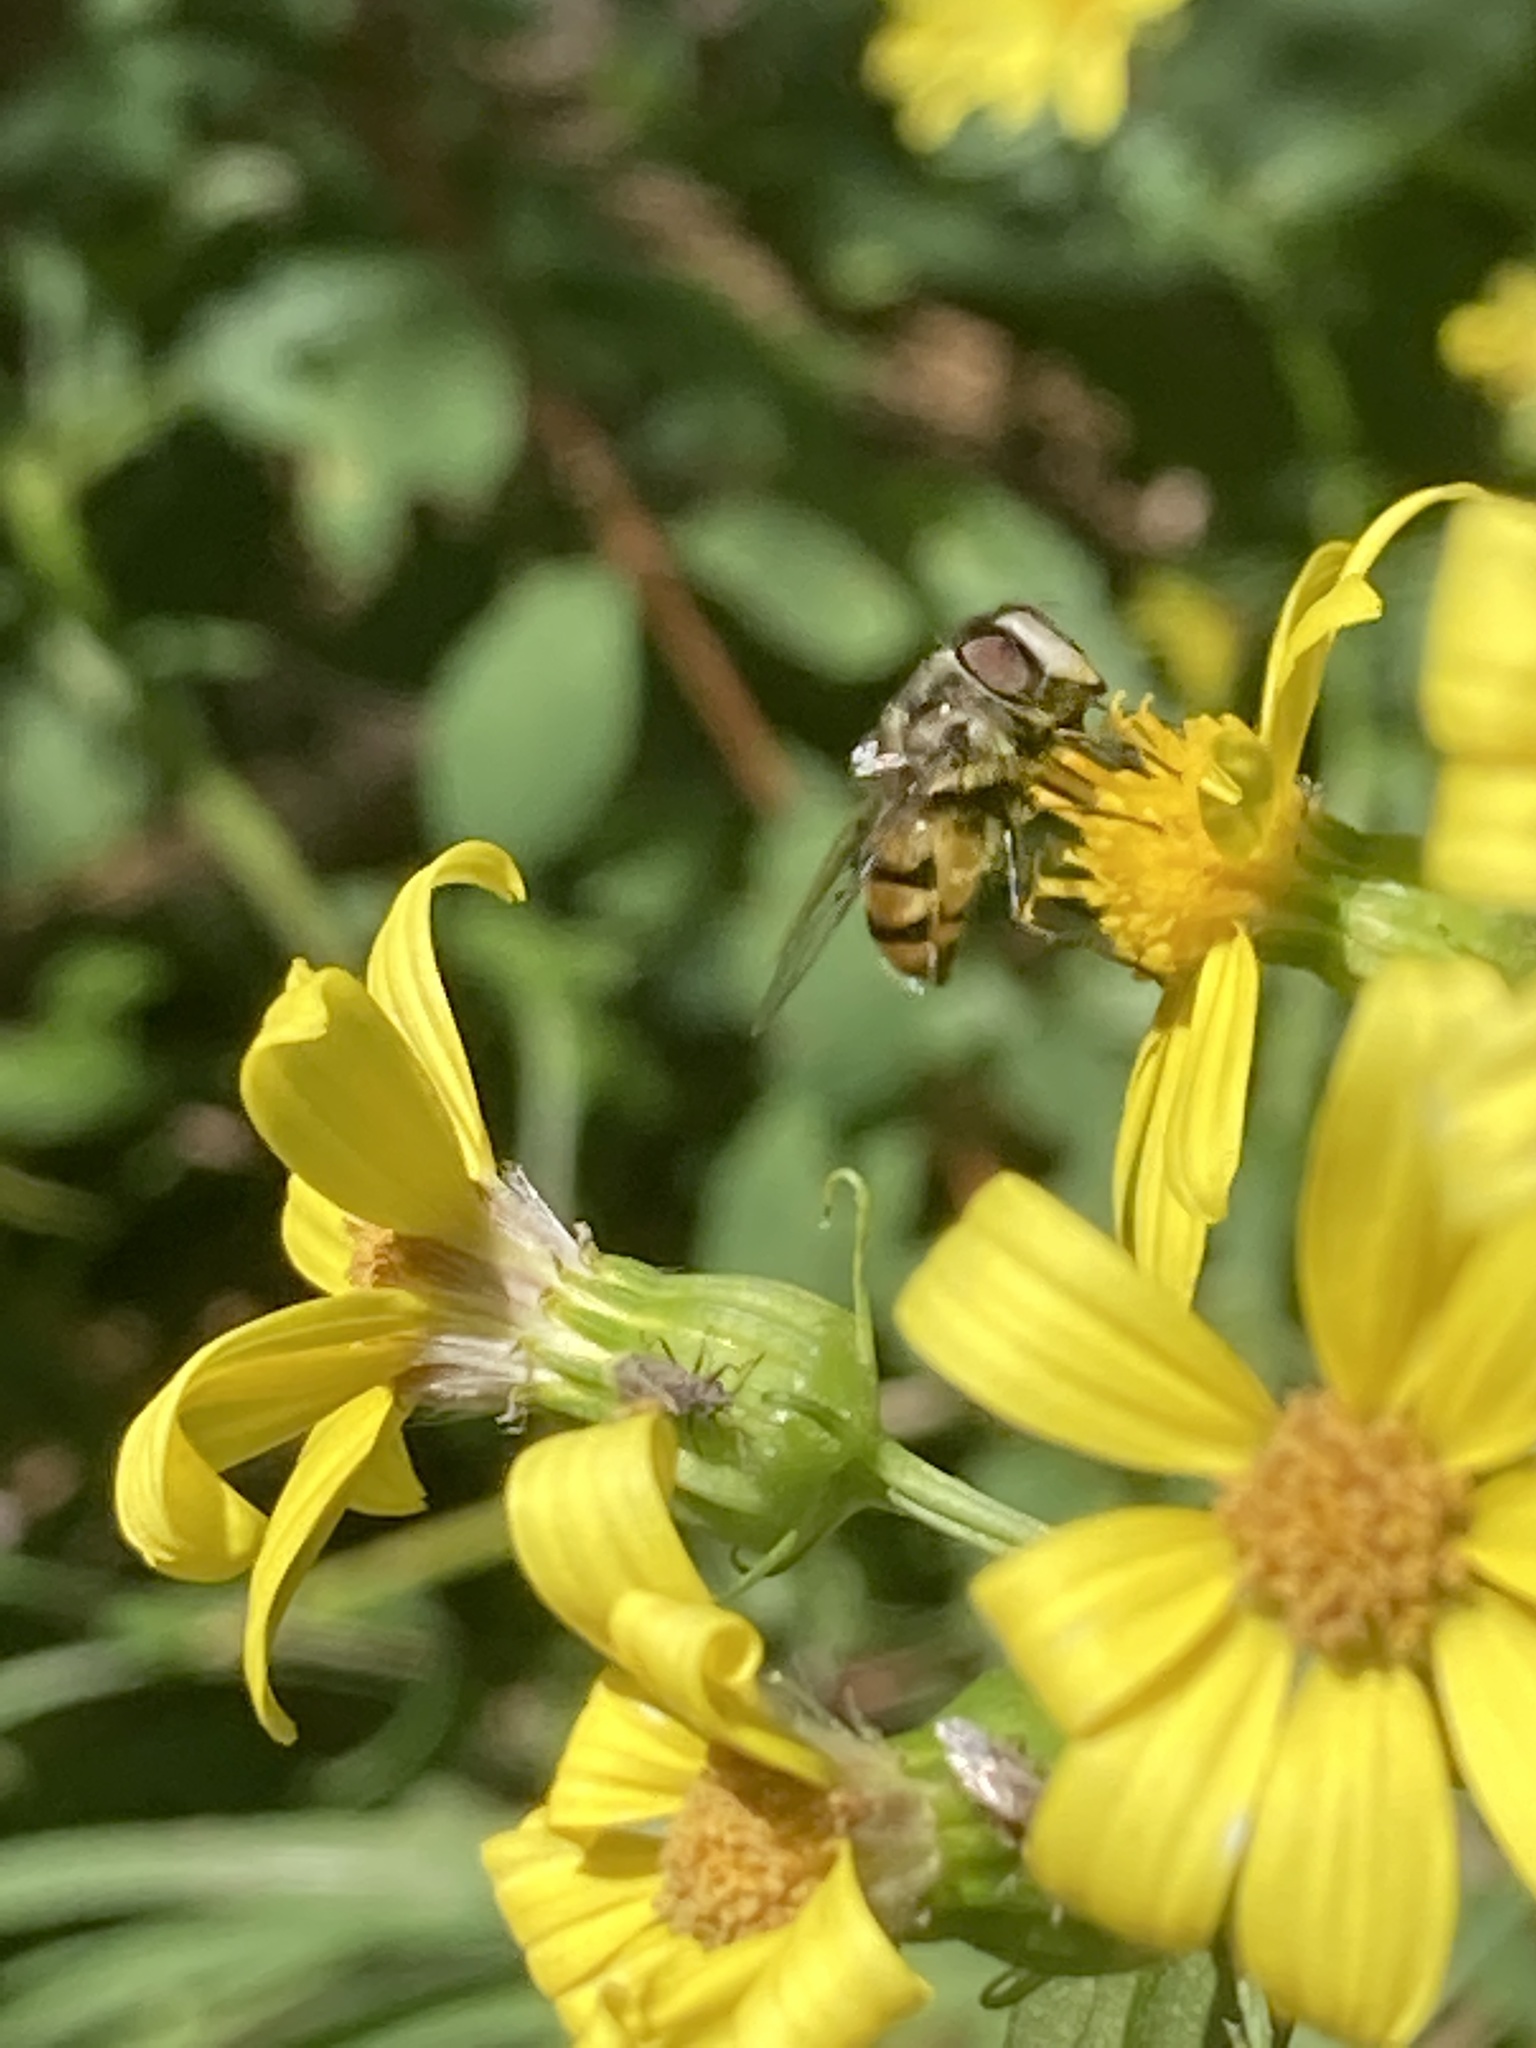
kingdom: Animalia
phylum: Arthropoda
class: Insecta
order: Diptera
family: Syrphidae
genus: Copestylum
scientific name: Copestylum avidum
